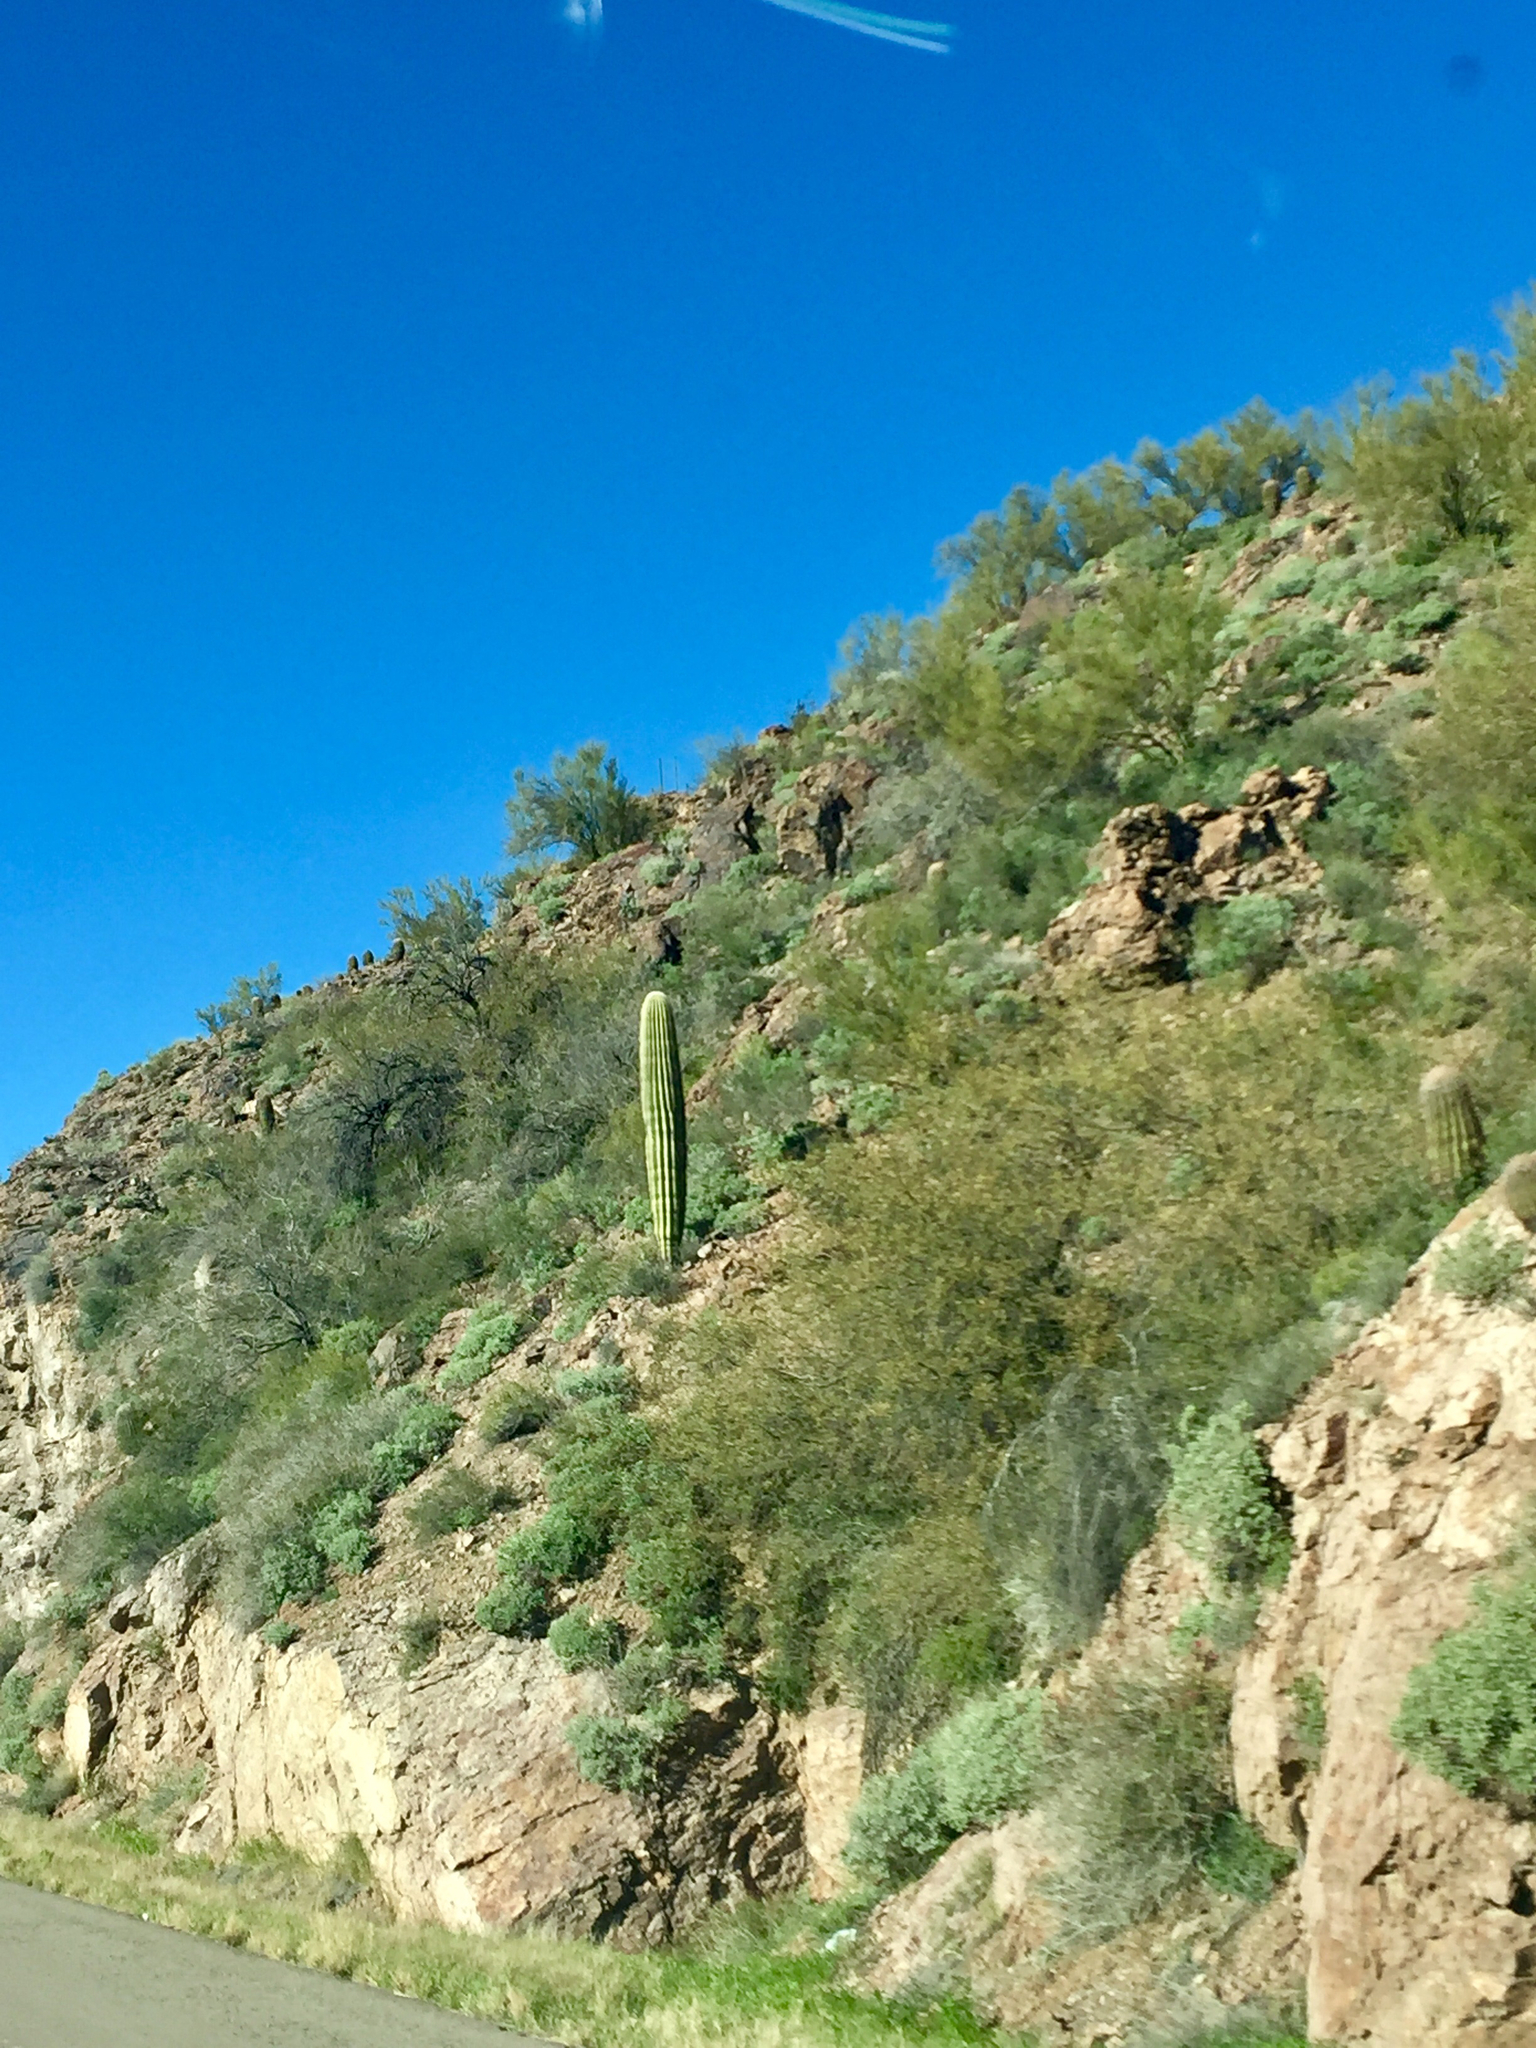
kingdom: Plantae
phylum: Tracheophyta
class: Magnoliopsida
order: Caryophyllales
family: Cactaceae
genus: Carnegiea
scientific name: Carnegiea gigantea
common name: Saguaro
